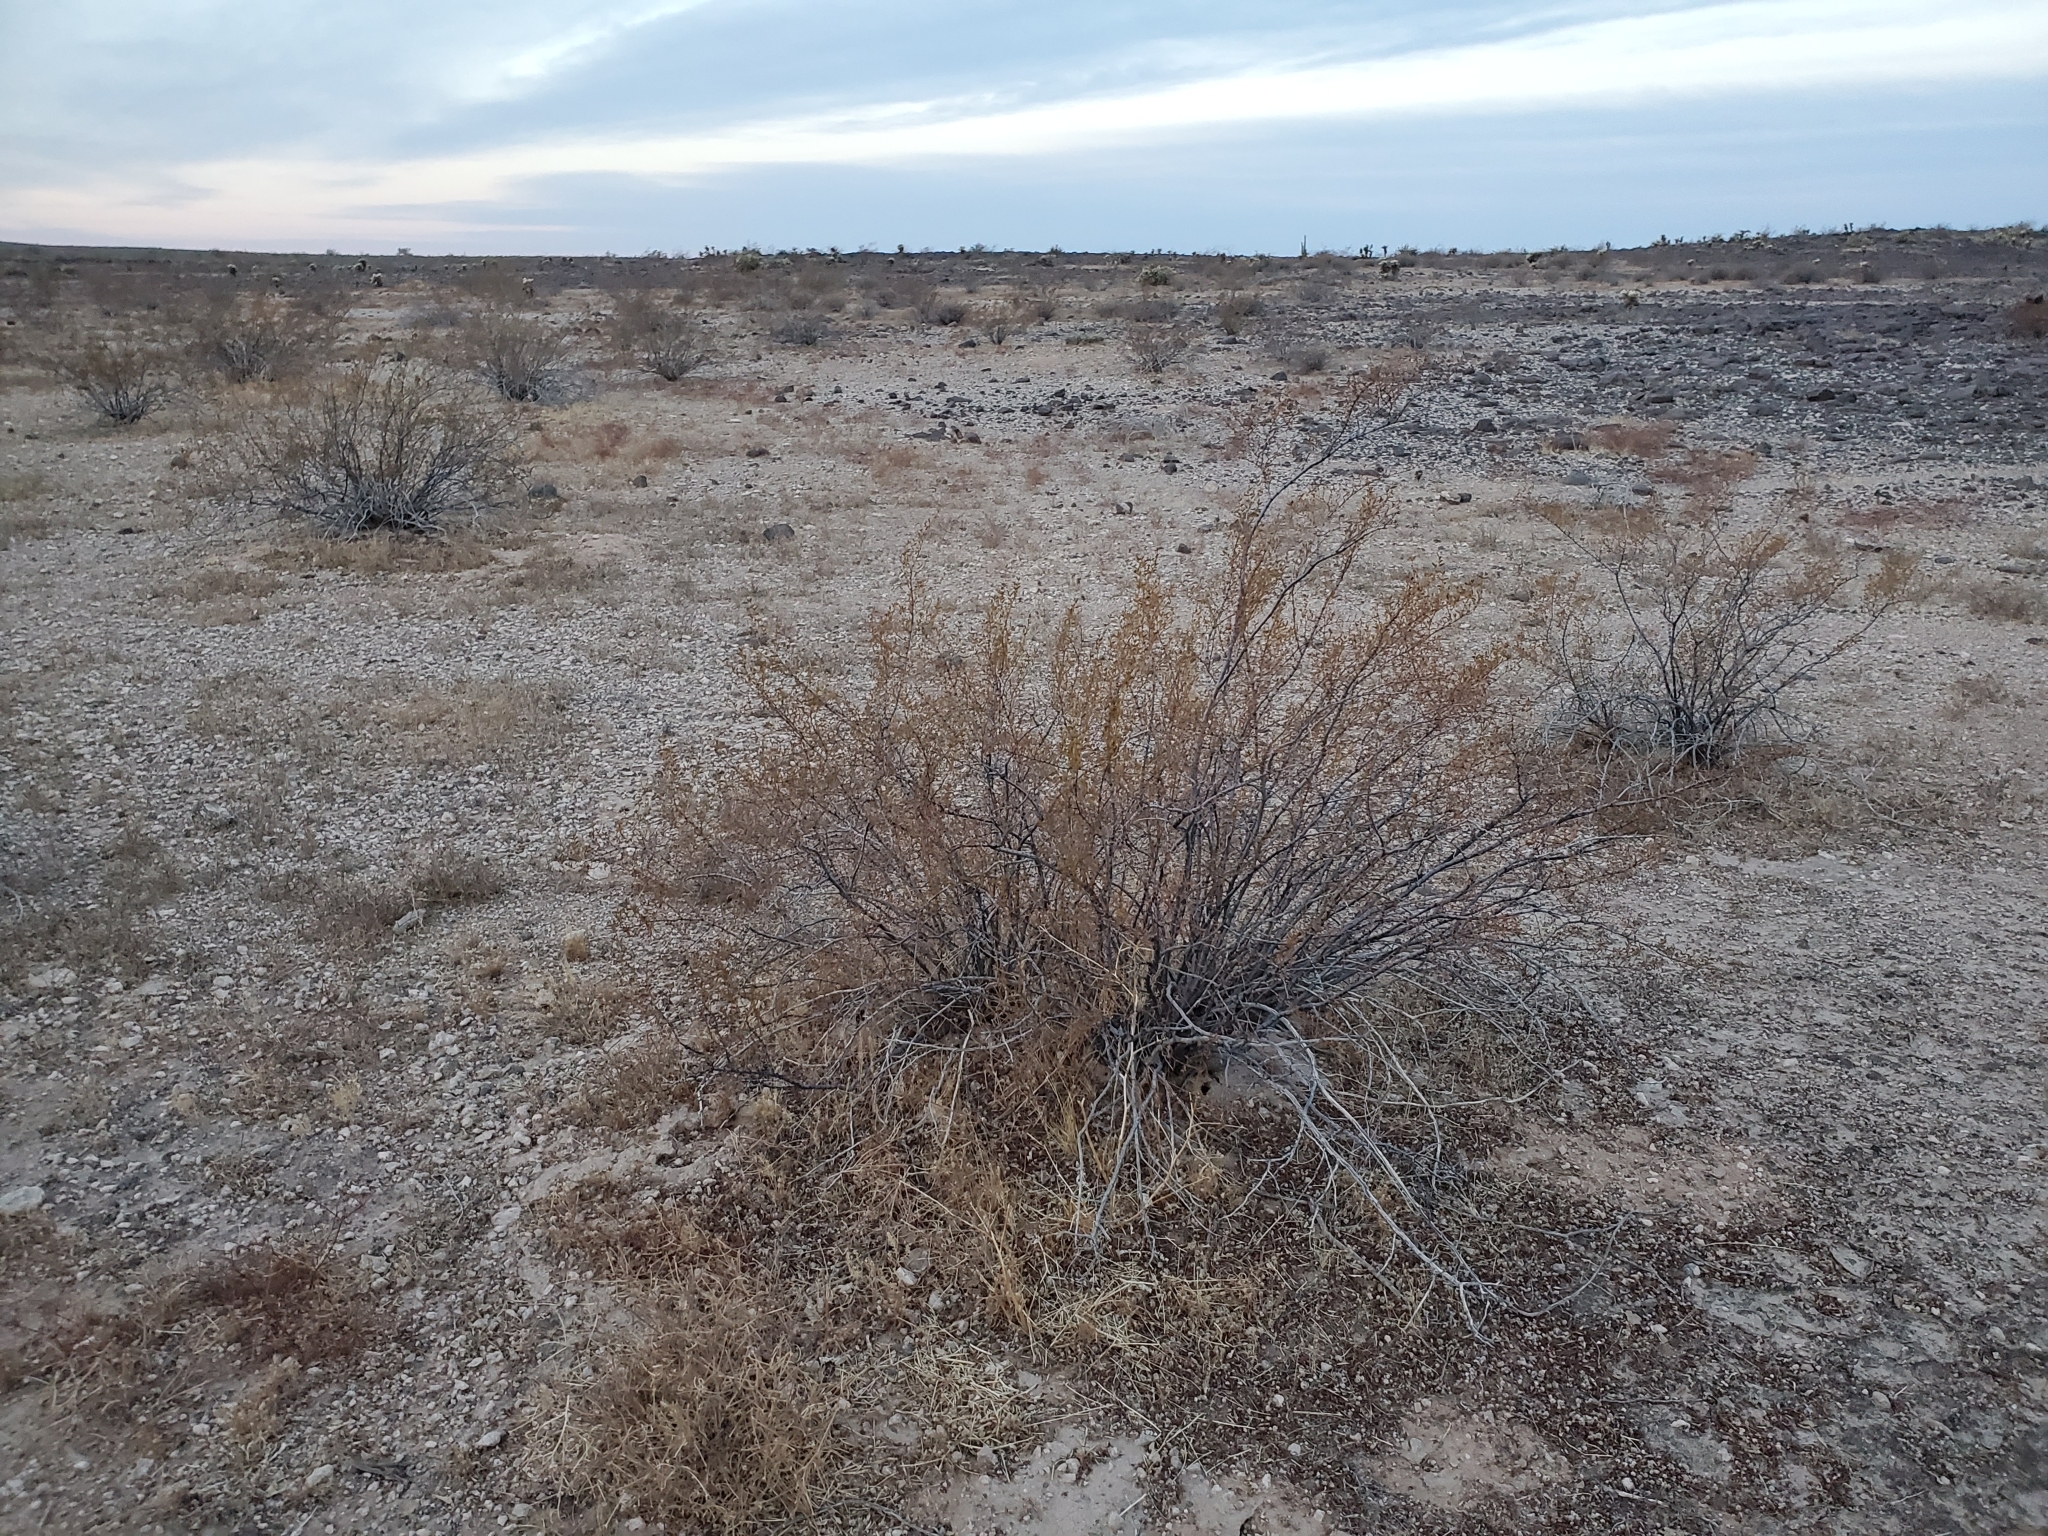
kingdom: Plantae
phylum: Tracheophyta
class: Magnoliopsida
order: Zygophyllales
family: Zygophyllaceae
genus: Larrea
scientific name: Larrea tridentata
